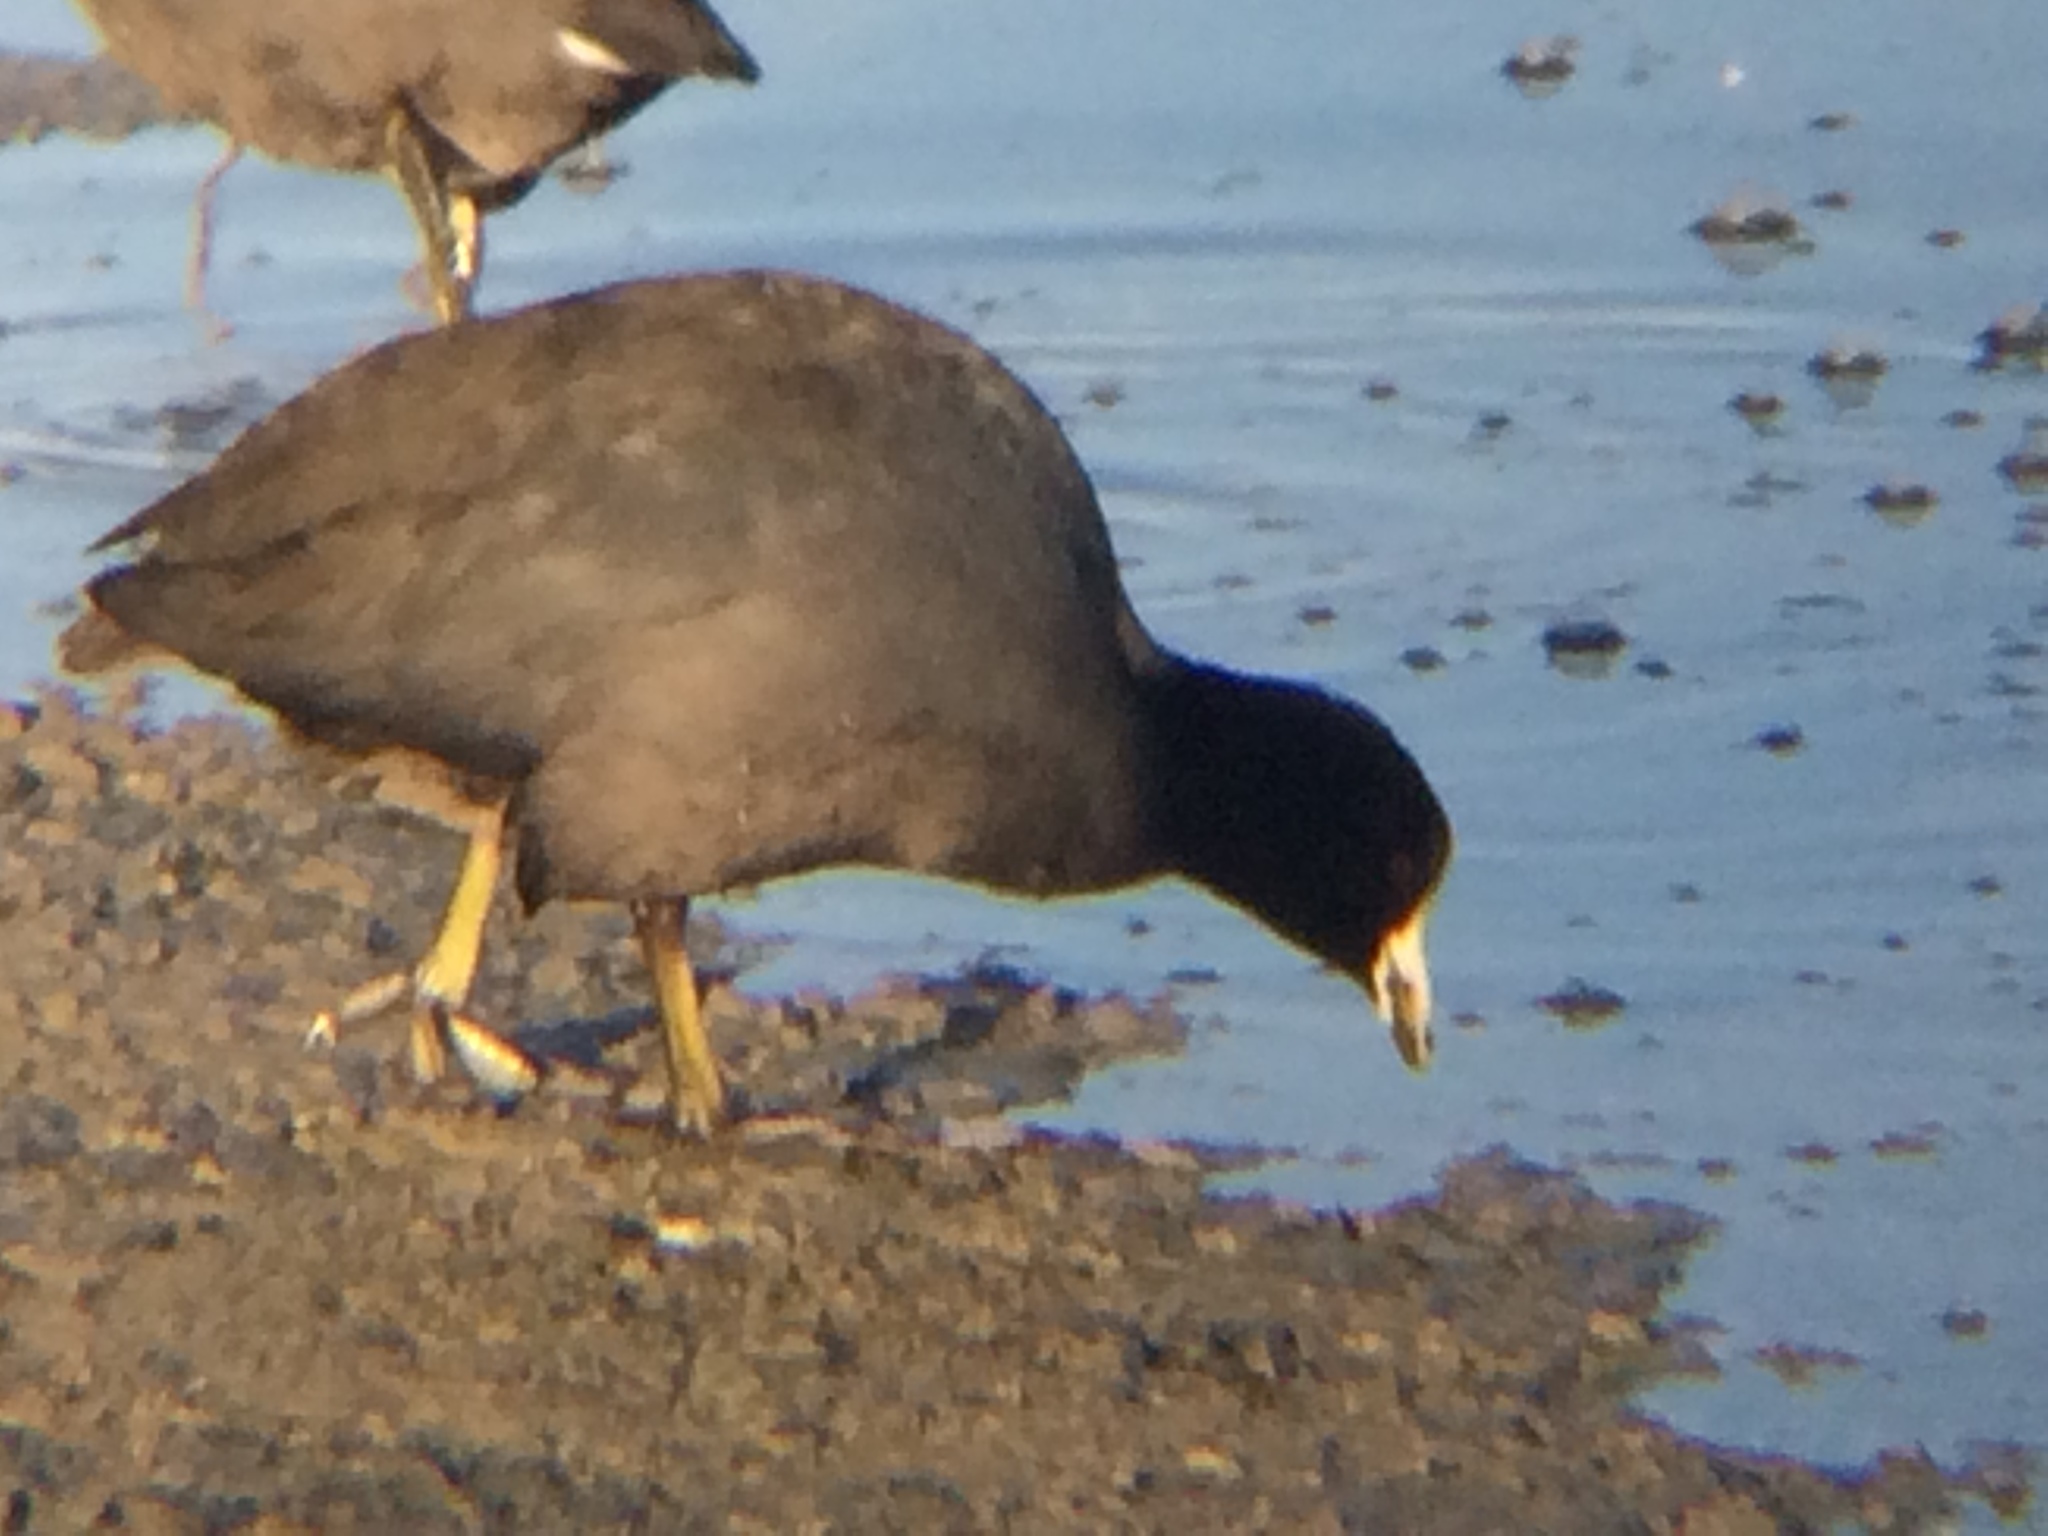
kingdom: Animalia
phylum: Chordata
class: Aves
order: Gruiformes
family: Rallidae
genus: Fulica
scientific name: Fulica americana
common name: American coot
